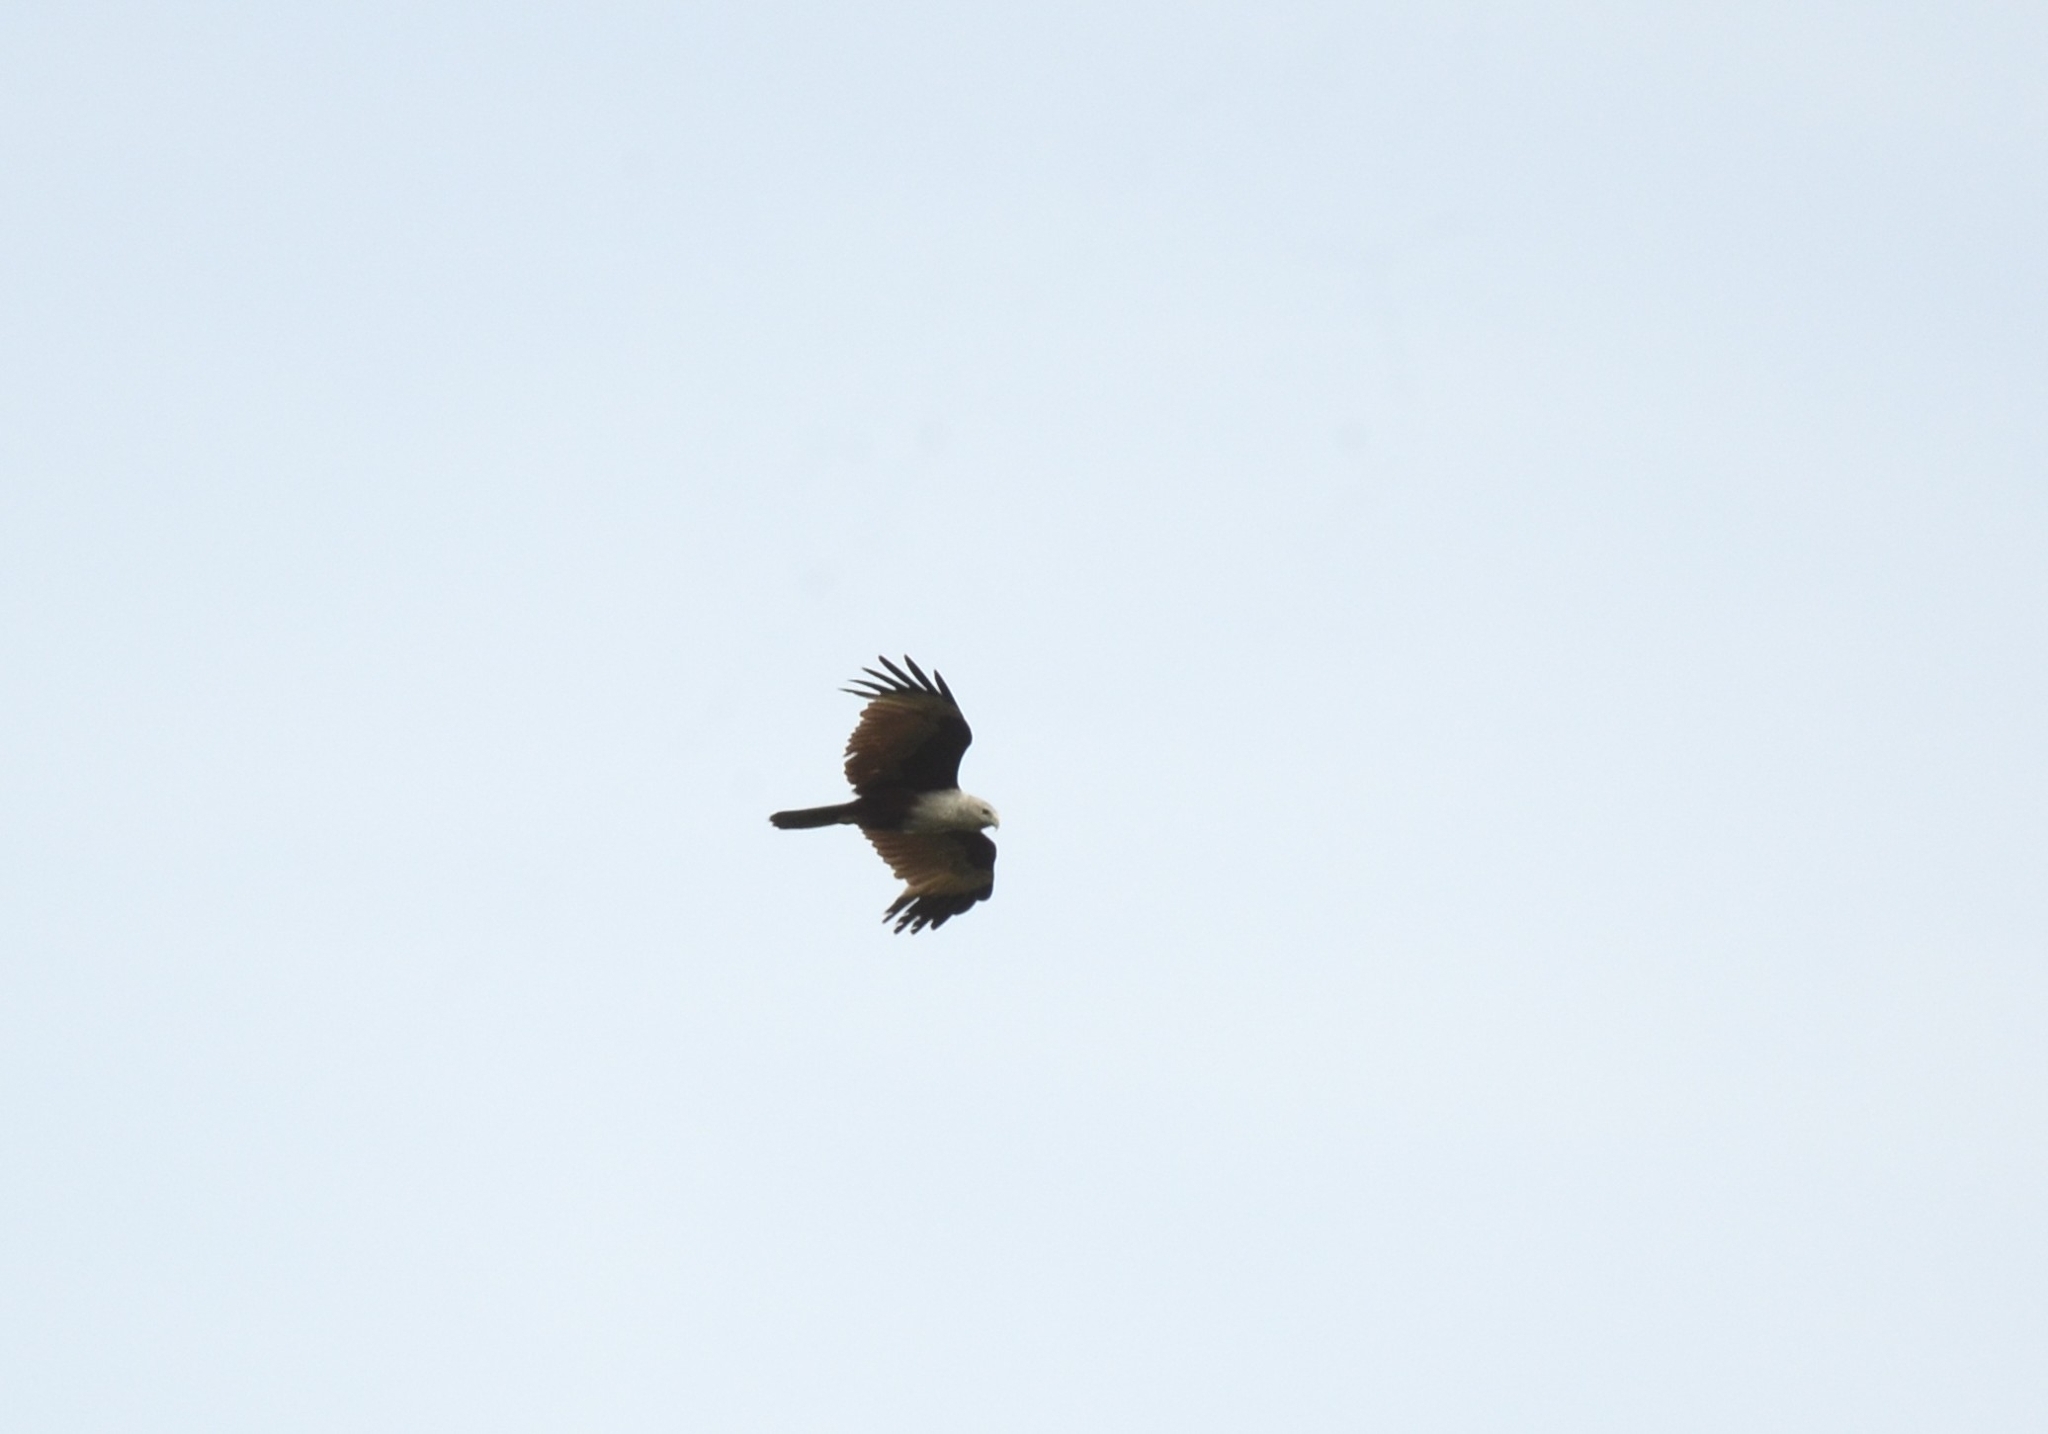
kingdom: Animalia
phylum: Chordata
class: Aves
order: Accipitriformes
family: Accipitridae
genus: Haliastur
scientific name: Haliastur indus
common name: Brahminy kite
